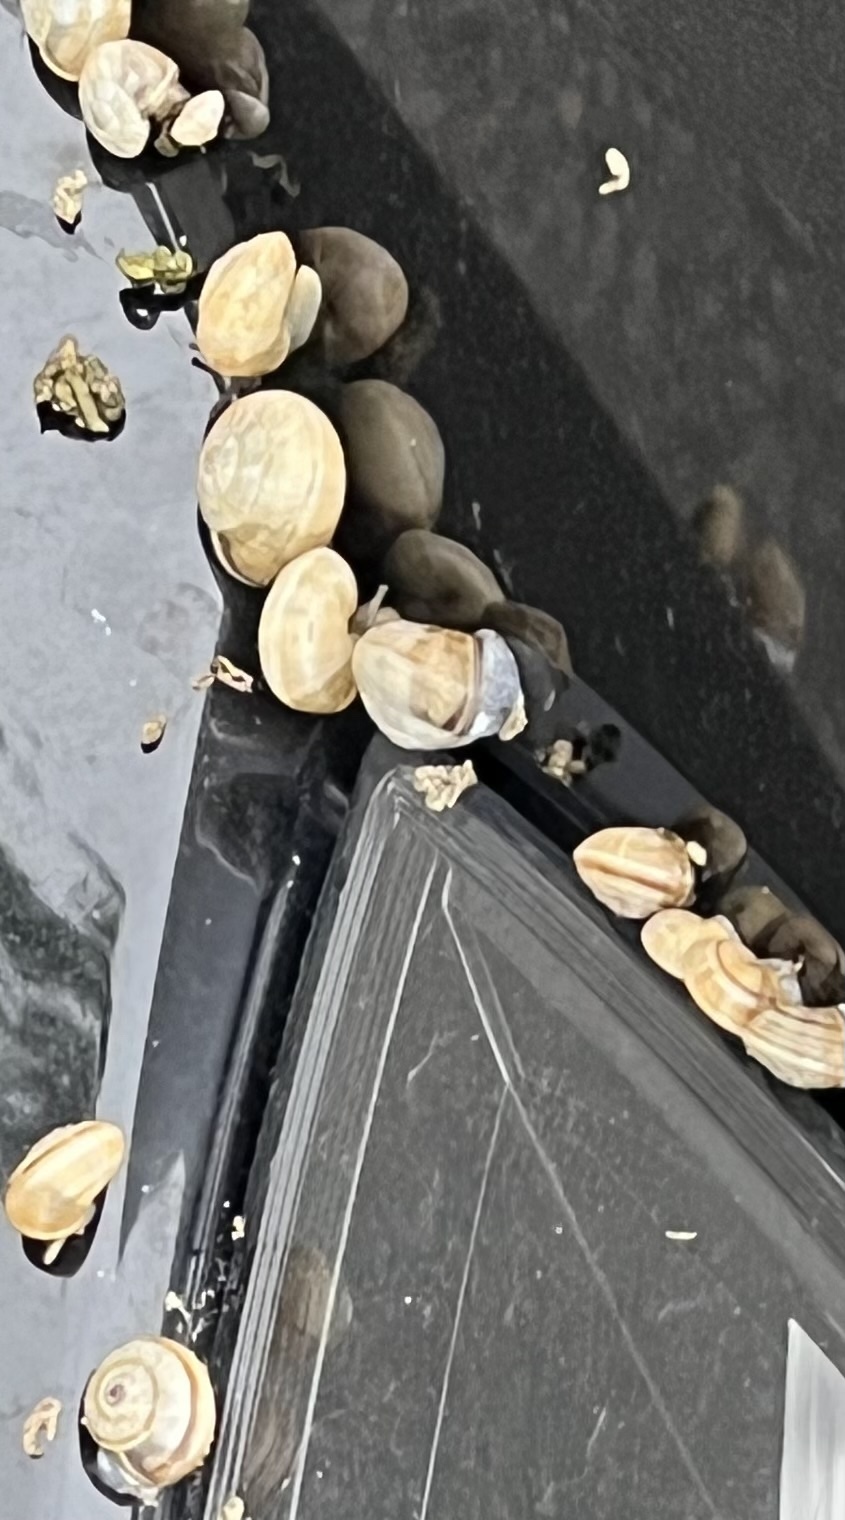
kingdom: Animalia
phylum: Mollusca
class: Gastropoda
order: Stylommatophora
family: Helicidae
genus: Theba
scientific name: Theba pisana
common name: White snail
